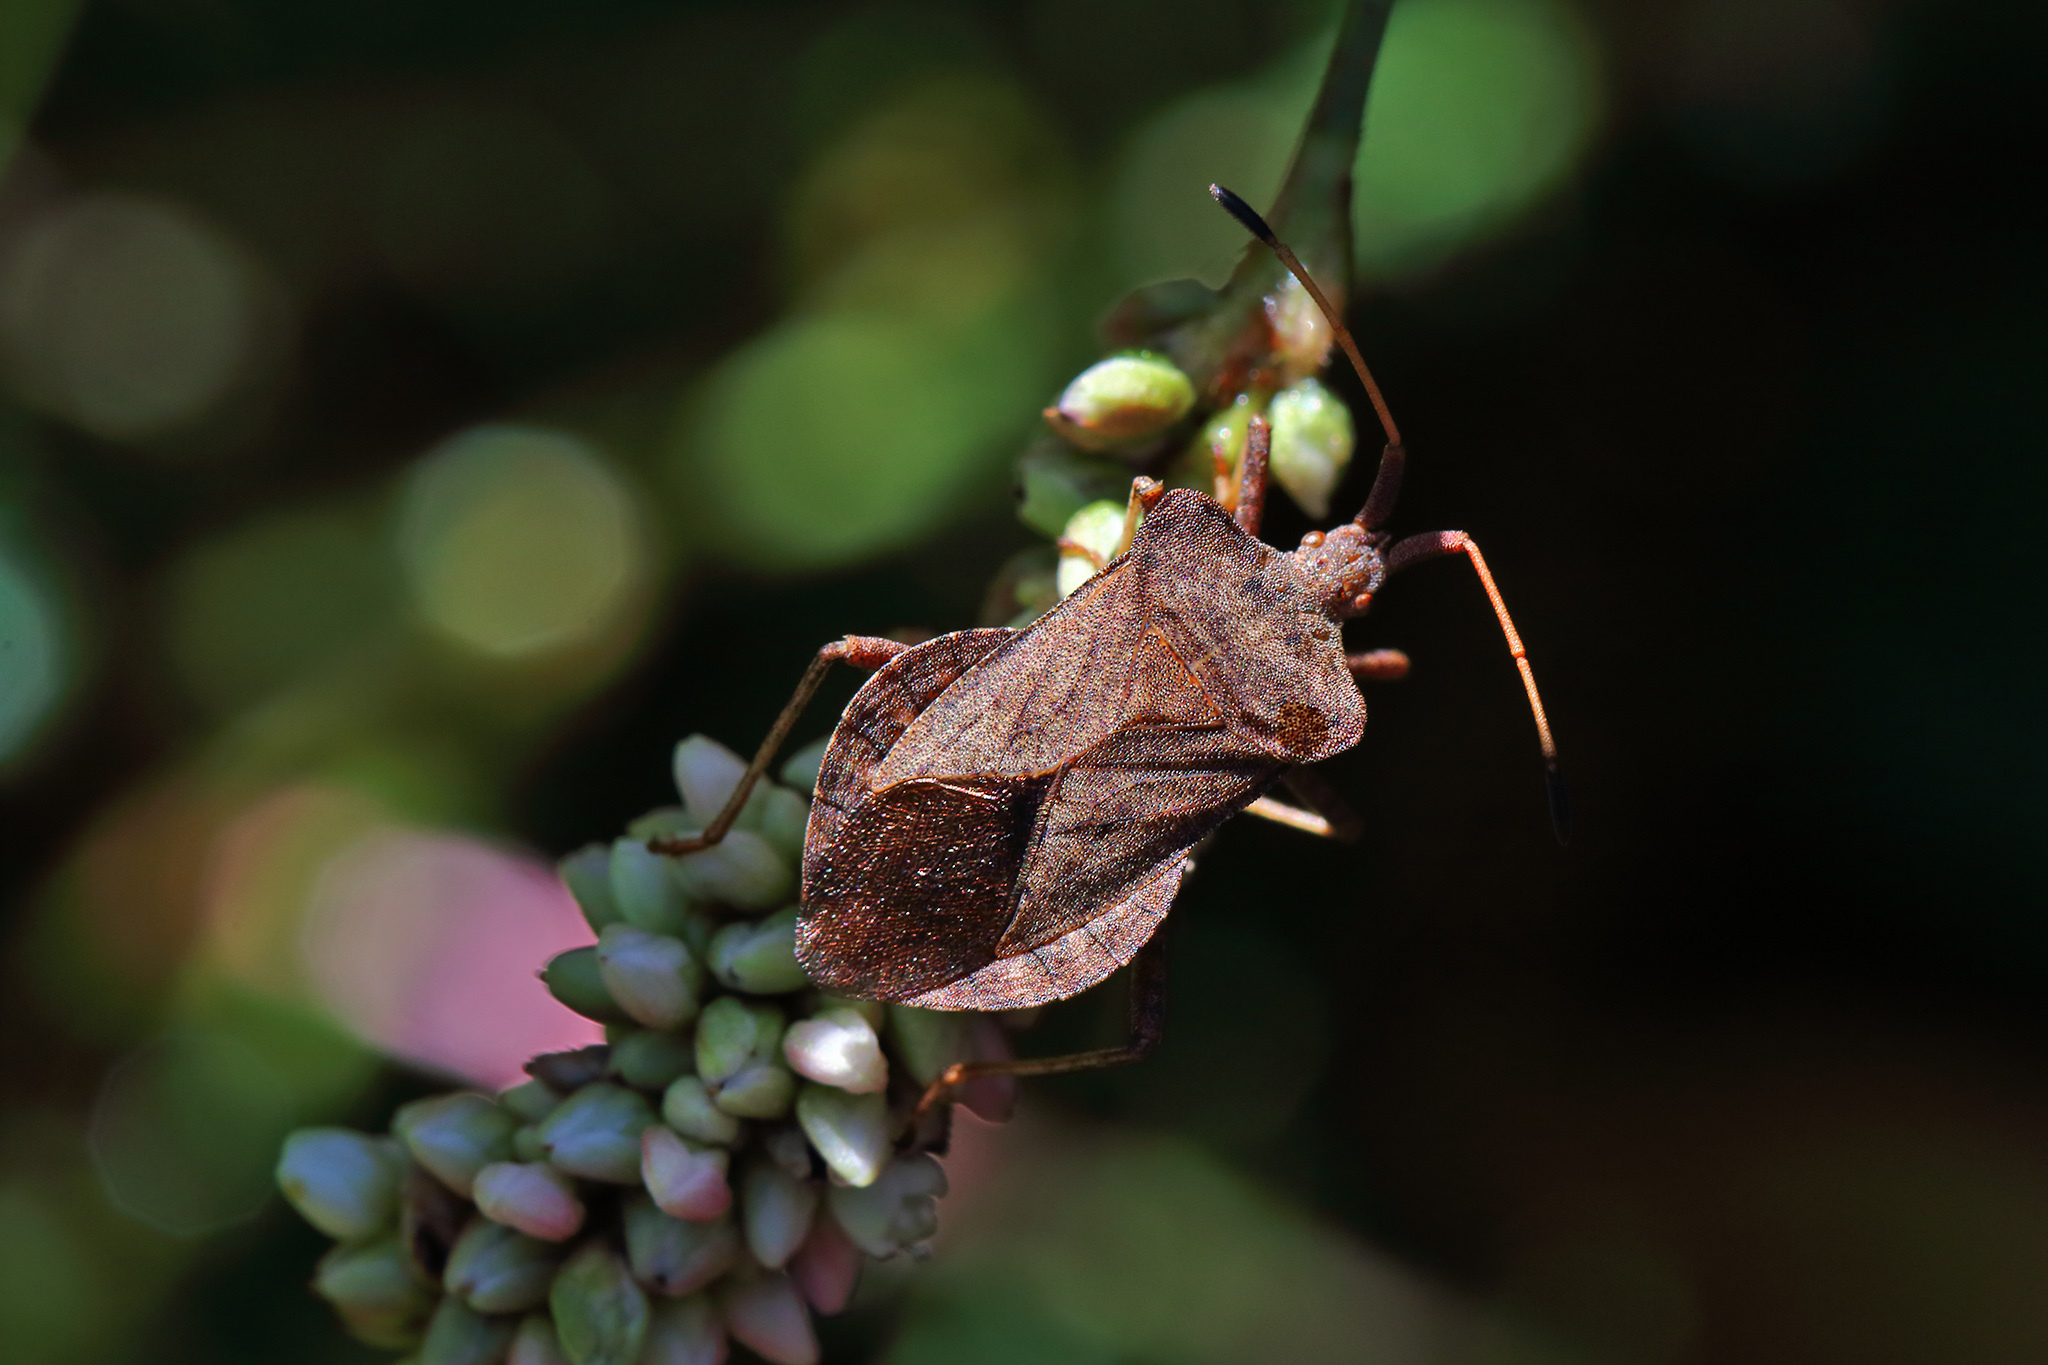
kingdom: Animalia
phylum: Arthropoda
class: Insecta
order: Hemiptera
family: Coreidae
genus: Coreus
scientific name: Coreus marginatus
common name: Dock bug
